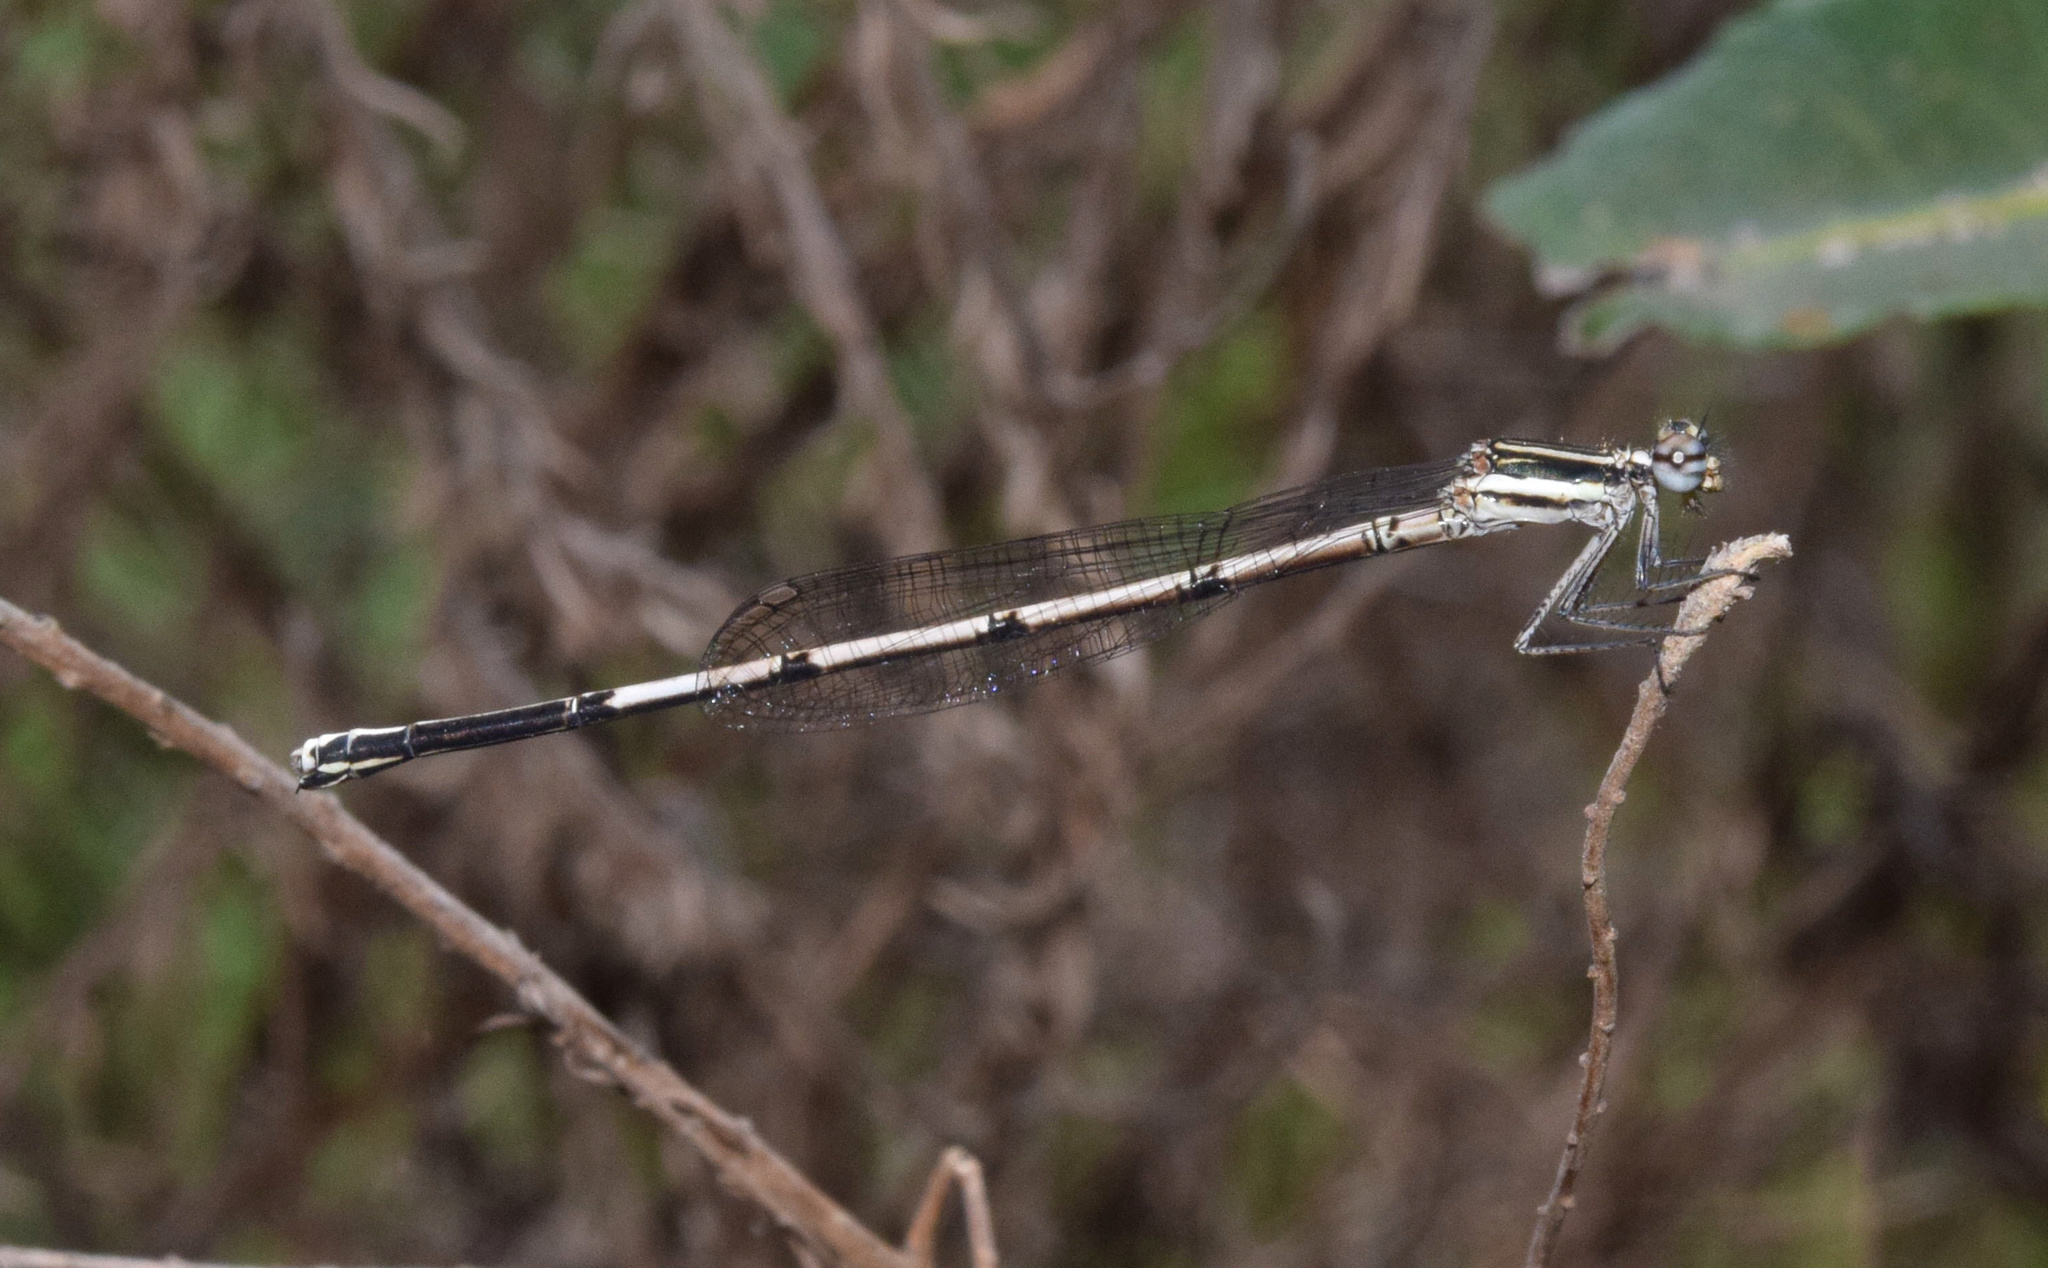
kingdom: Animalia
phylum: Arthropoda
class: Insecta
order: Odonata
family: Platycnemididae
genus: Elattoneura
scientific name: Elattoneura glauca
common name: Common threadtail
